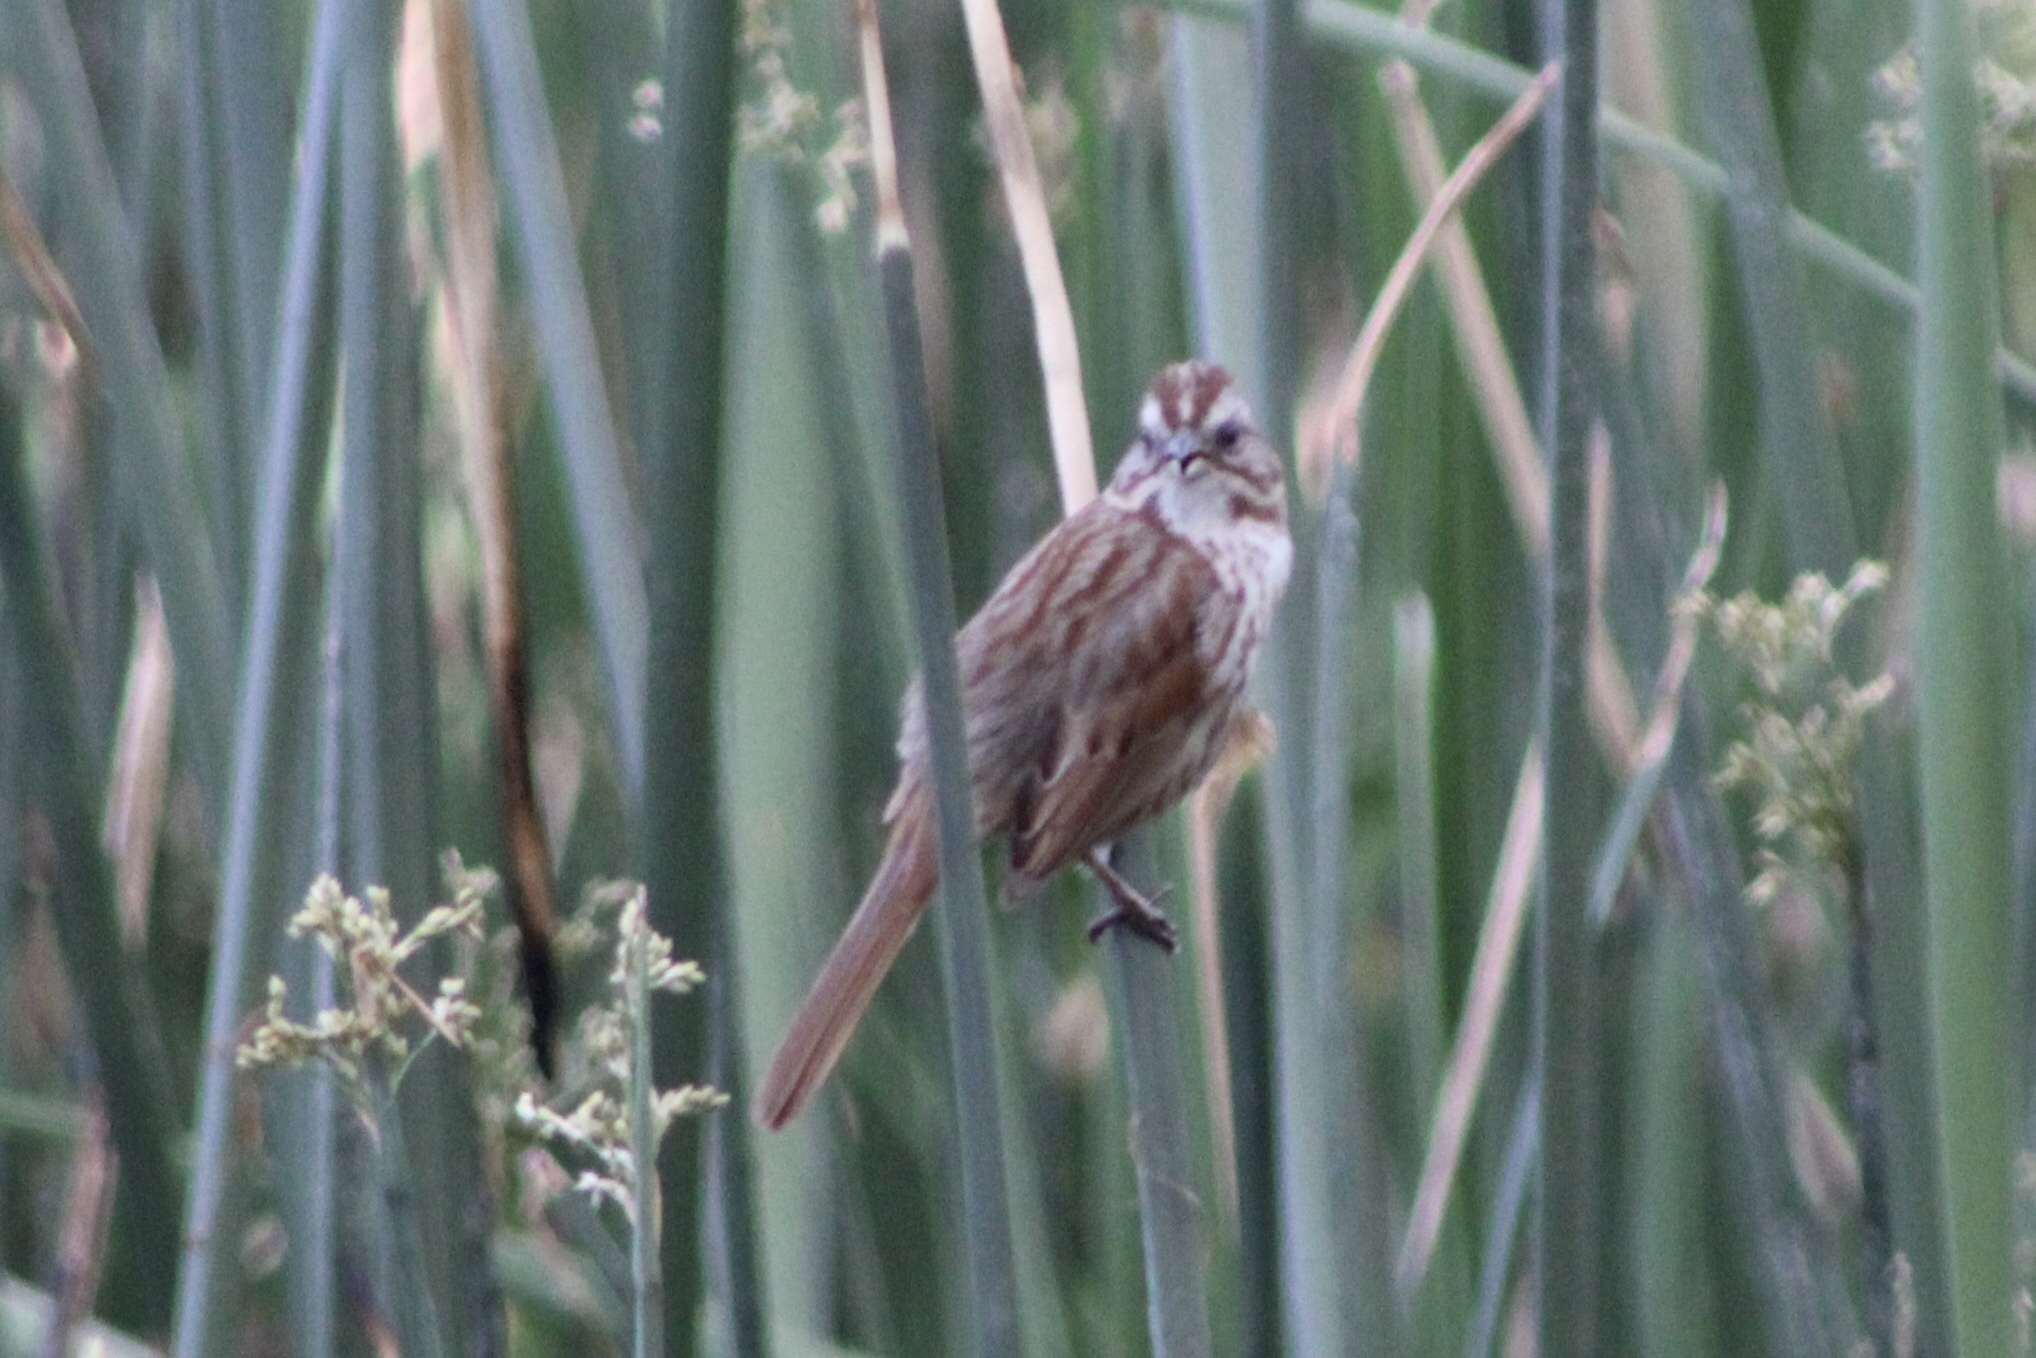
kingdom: Animalia
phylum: Chordata
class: Aves
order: Passeriformes
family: Passerellidae
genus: Melospiza
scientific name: Melospiza melodia
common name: Song sparrow
